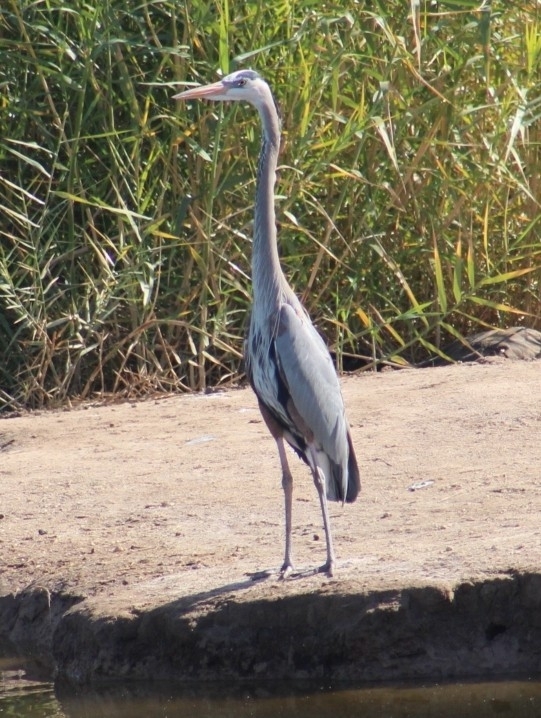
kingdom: Animalia
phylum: Chordata
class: Aves
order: Pelecaniformes
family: Ardeidae
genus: Ardea
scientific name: Ardea herodias
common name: Great blue heron
